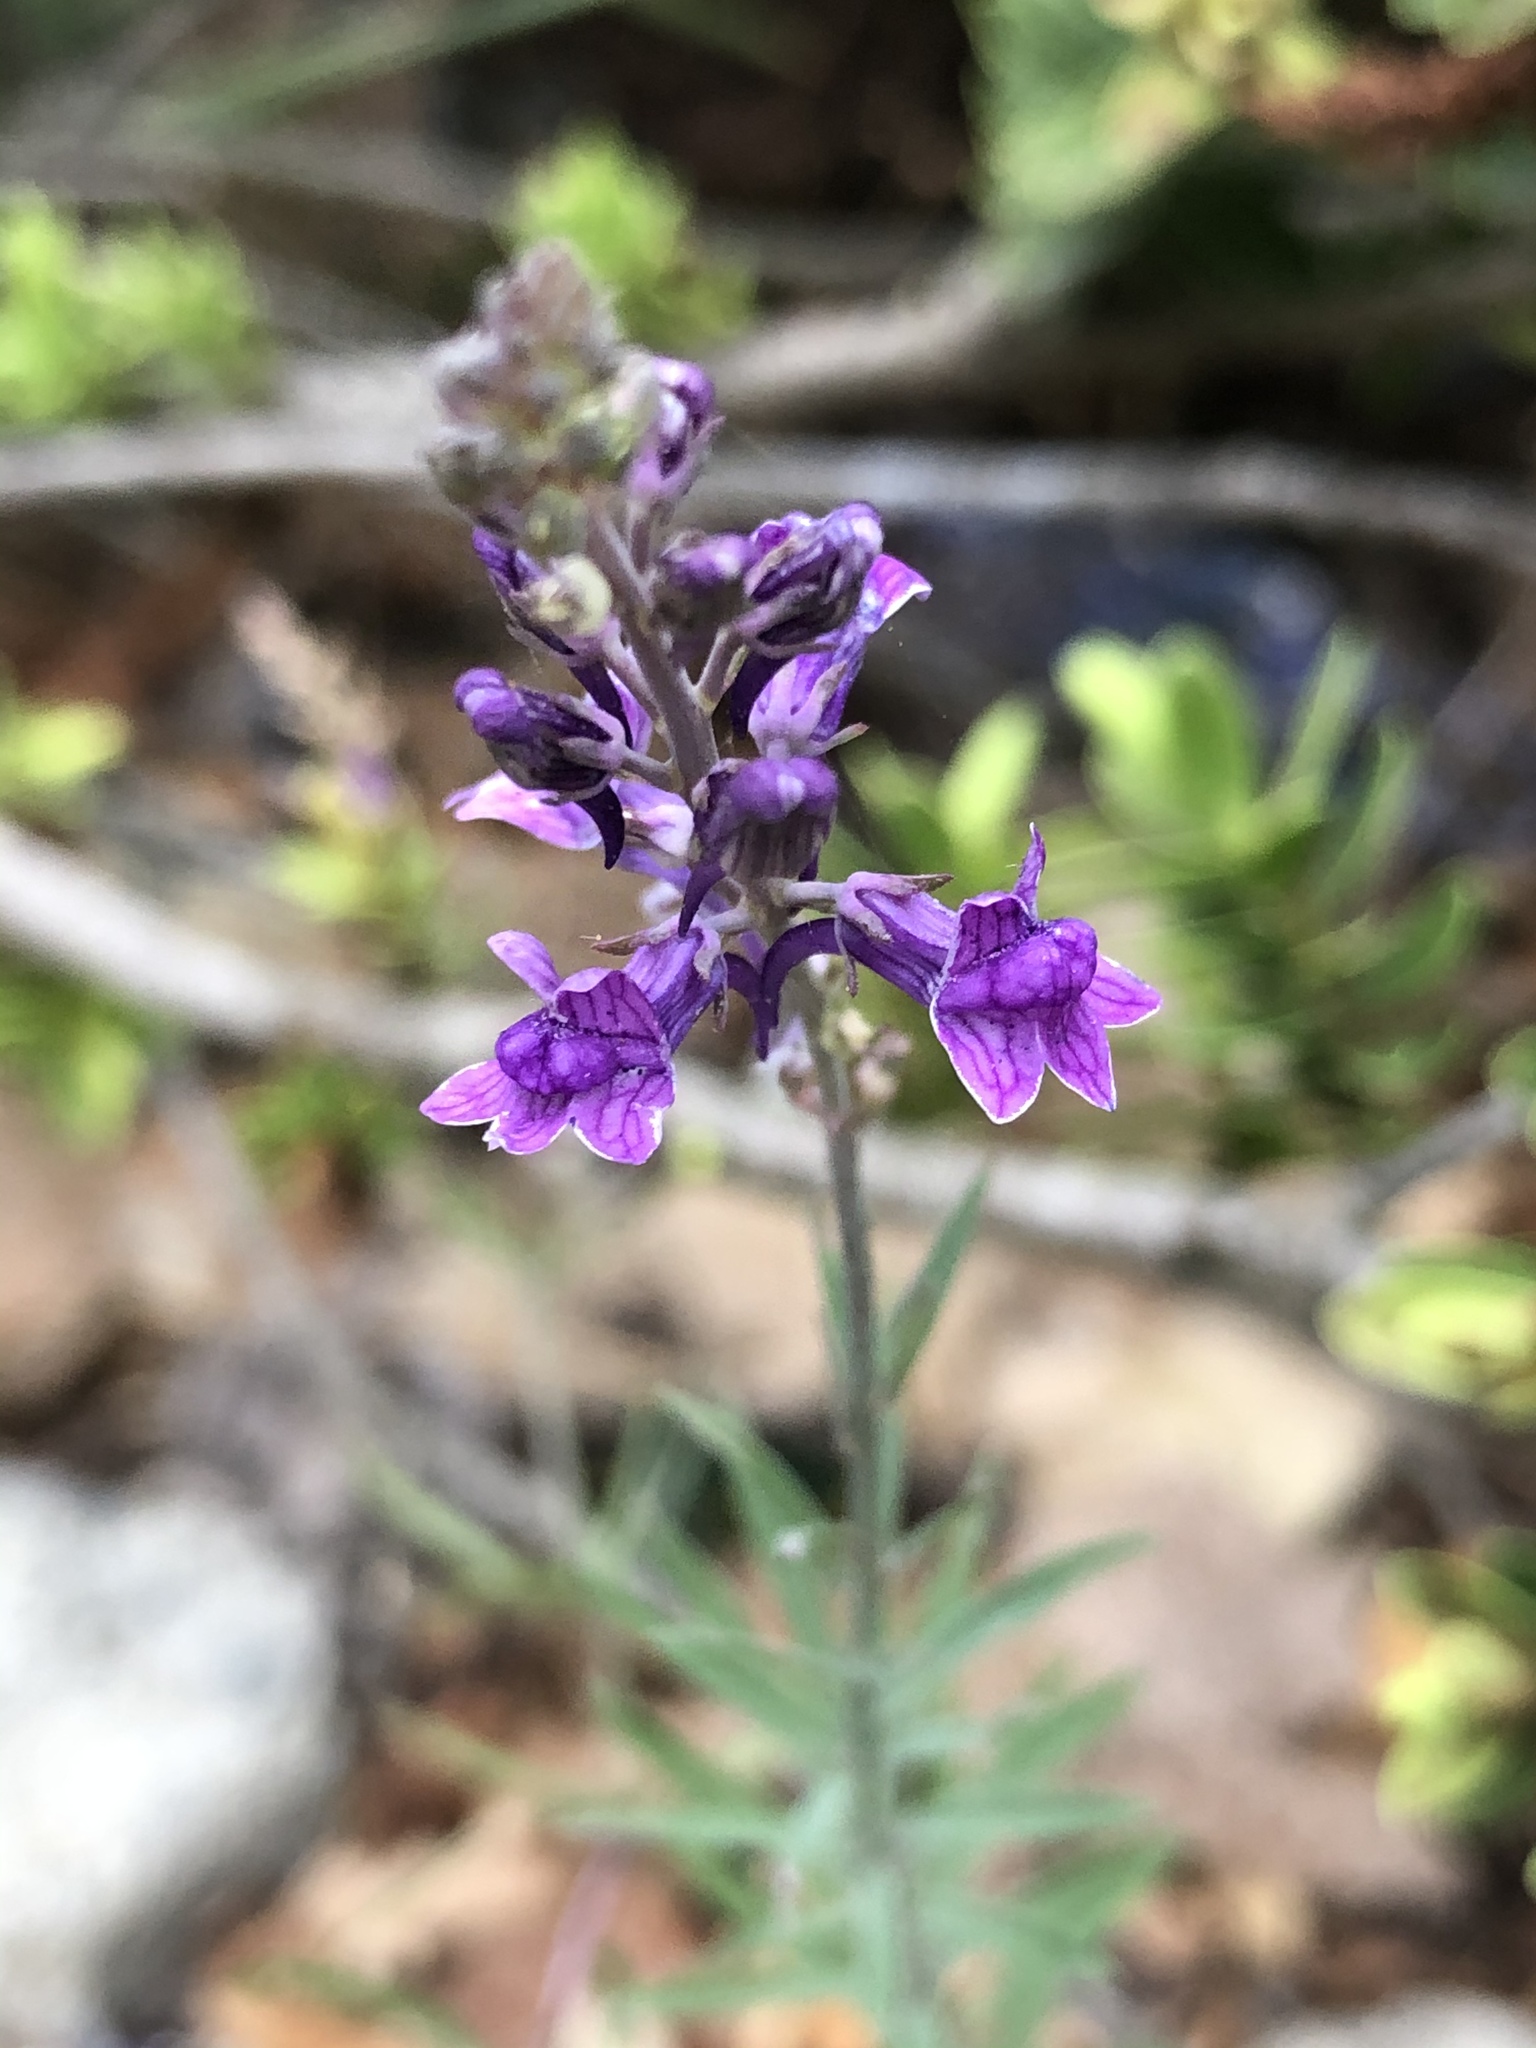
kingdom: Plantae
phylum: Tracheophyta
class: Magnoliopsida
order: Lamiales
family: Plantaginaceae
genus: Linaria
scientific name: Linaria purpurea
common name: Purple toadflax
